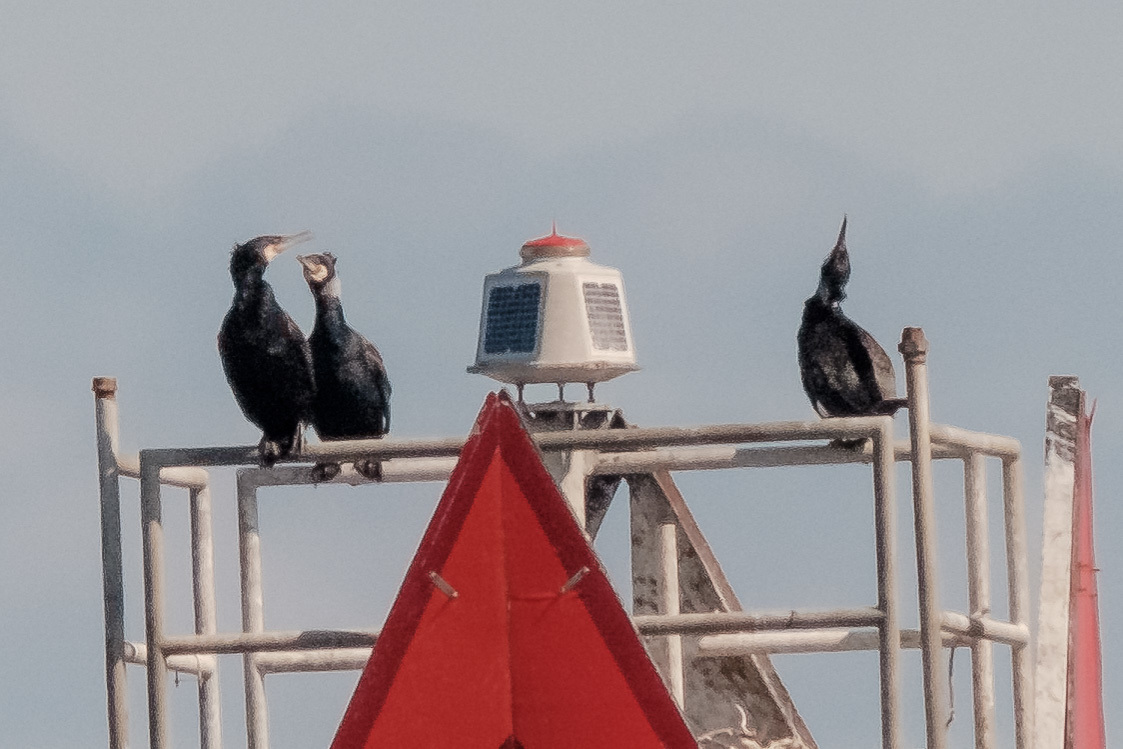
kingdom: Animalia
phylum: Chordata
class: Aves
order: Suliformes
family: Phalacrocoracidae
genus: Phalacrocorax
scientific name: Phalacrocorax carbo
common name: Great cormorant
